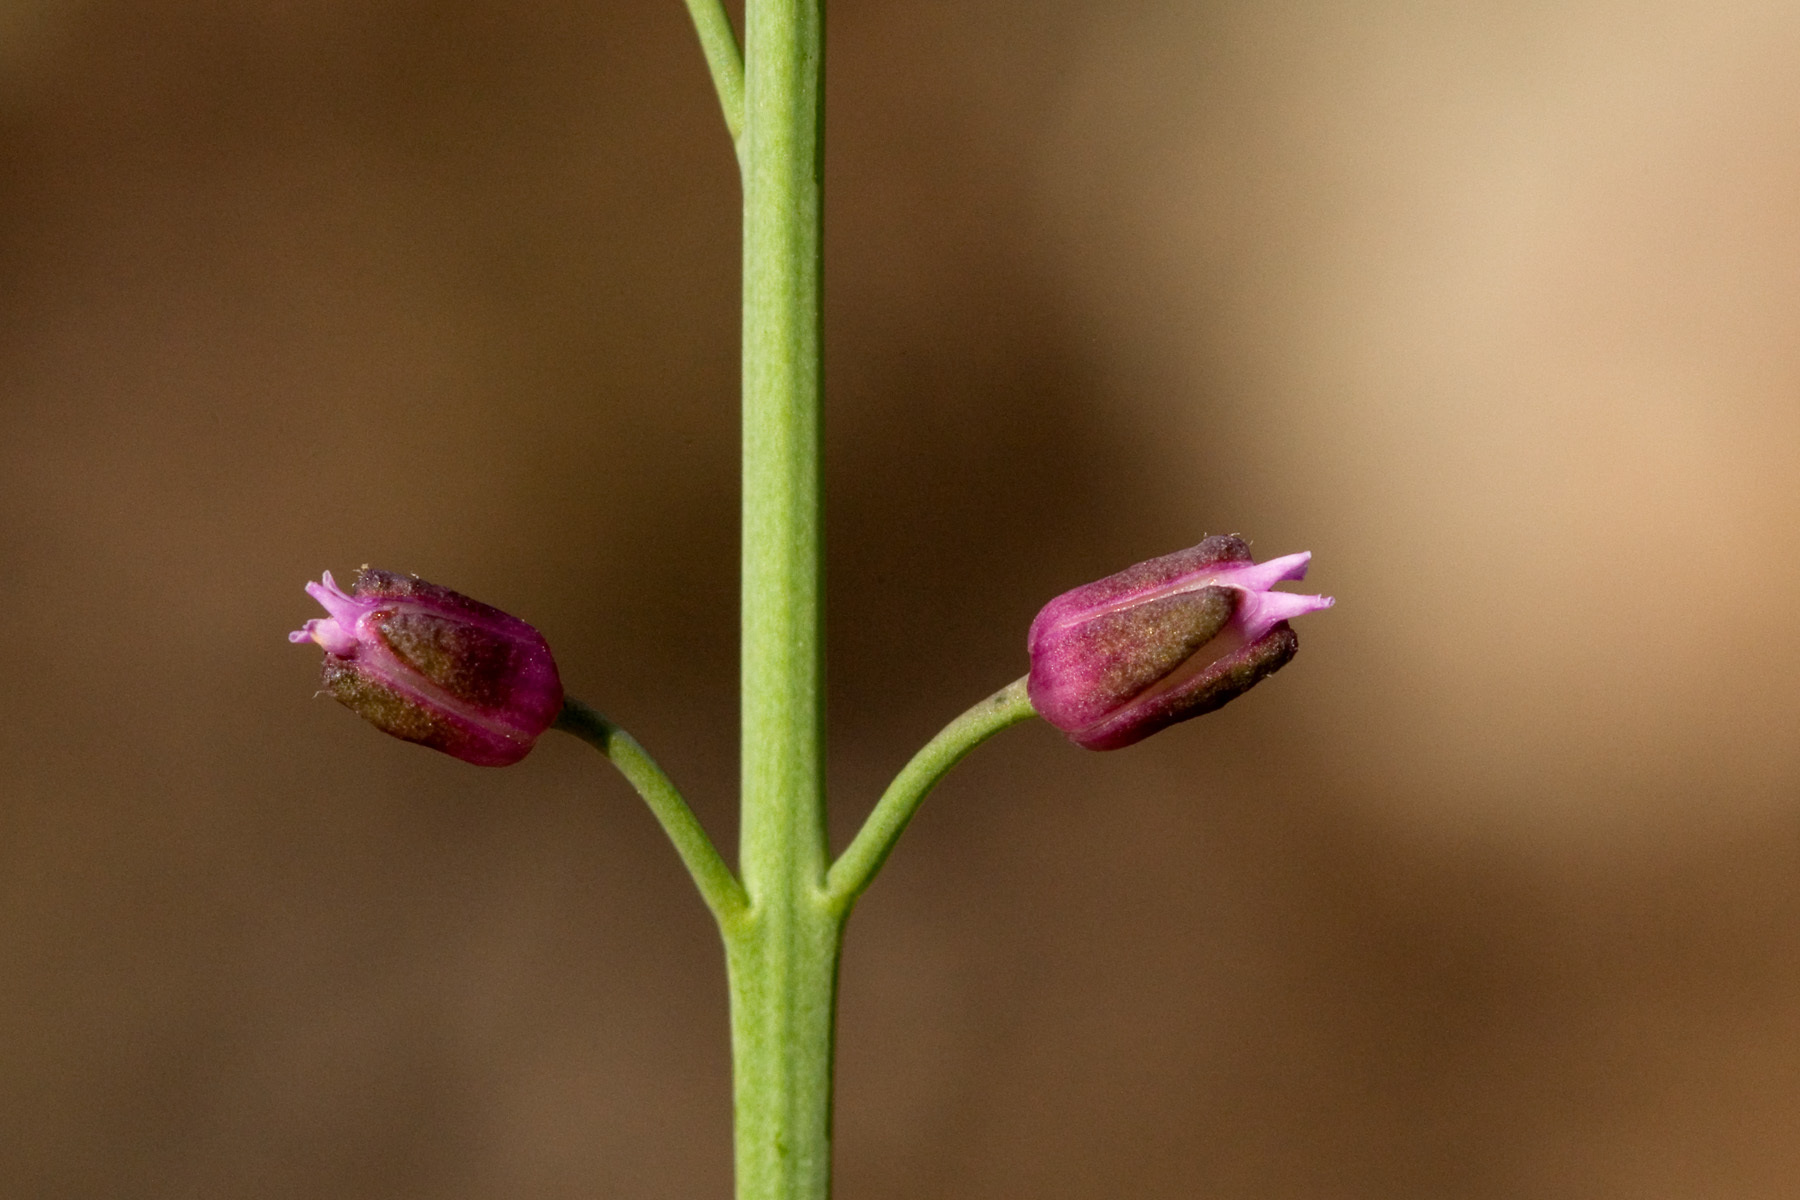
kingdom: Plantae
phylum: Tracheophyta
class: Magnoliopsida
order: Brassicales
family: Brassicaceae
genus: Pennellia
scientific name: Pennellia micrantha
